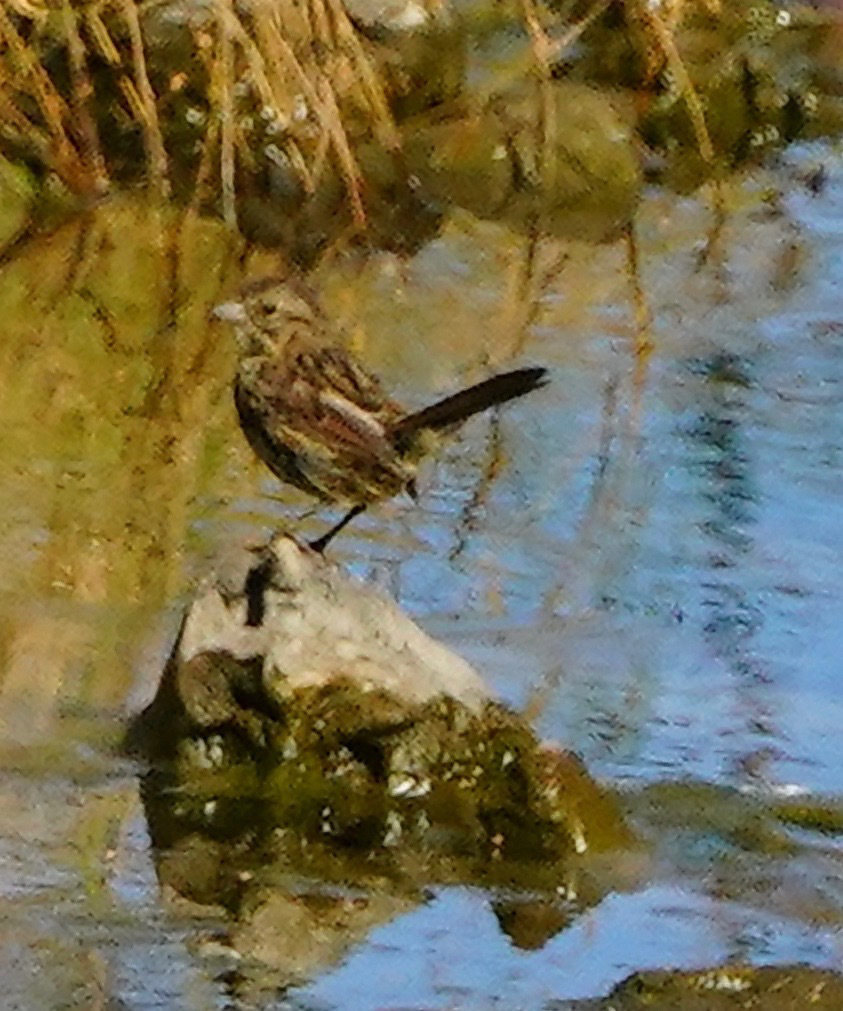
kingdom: Animalia
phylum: Chordata
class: Aves
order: Passeriformes
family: Passerellidae
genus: Melospiza
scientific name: Melospiza melodia
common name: Song sparrow
